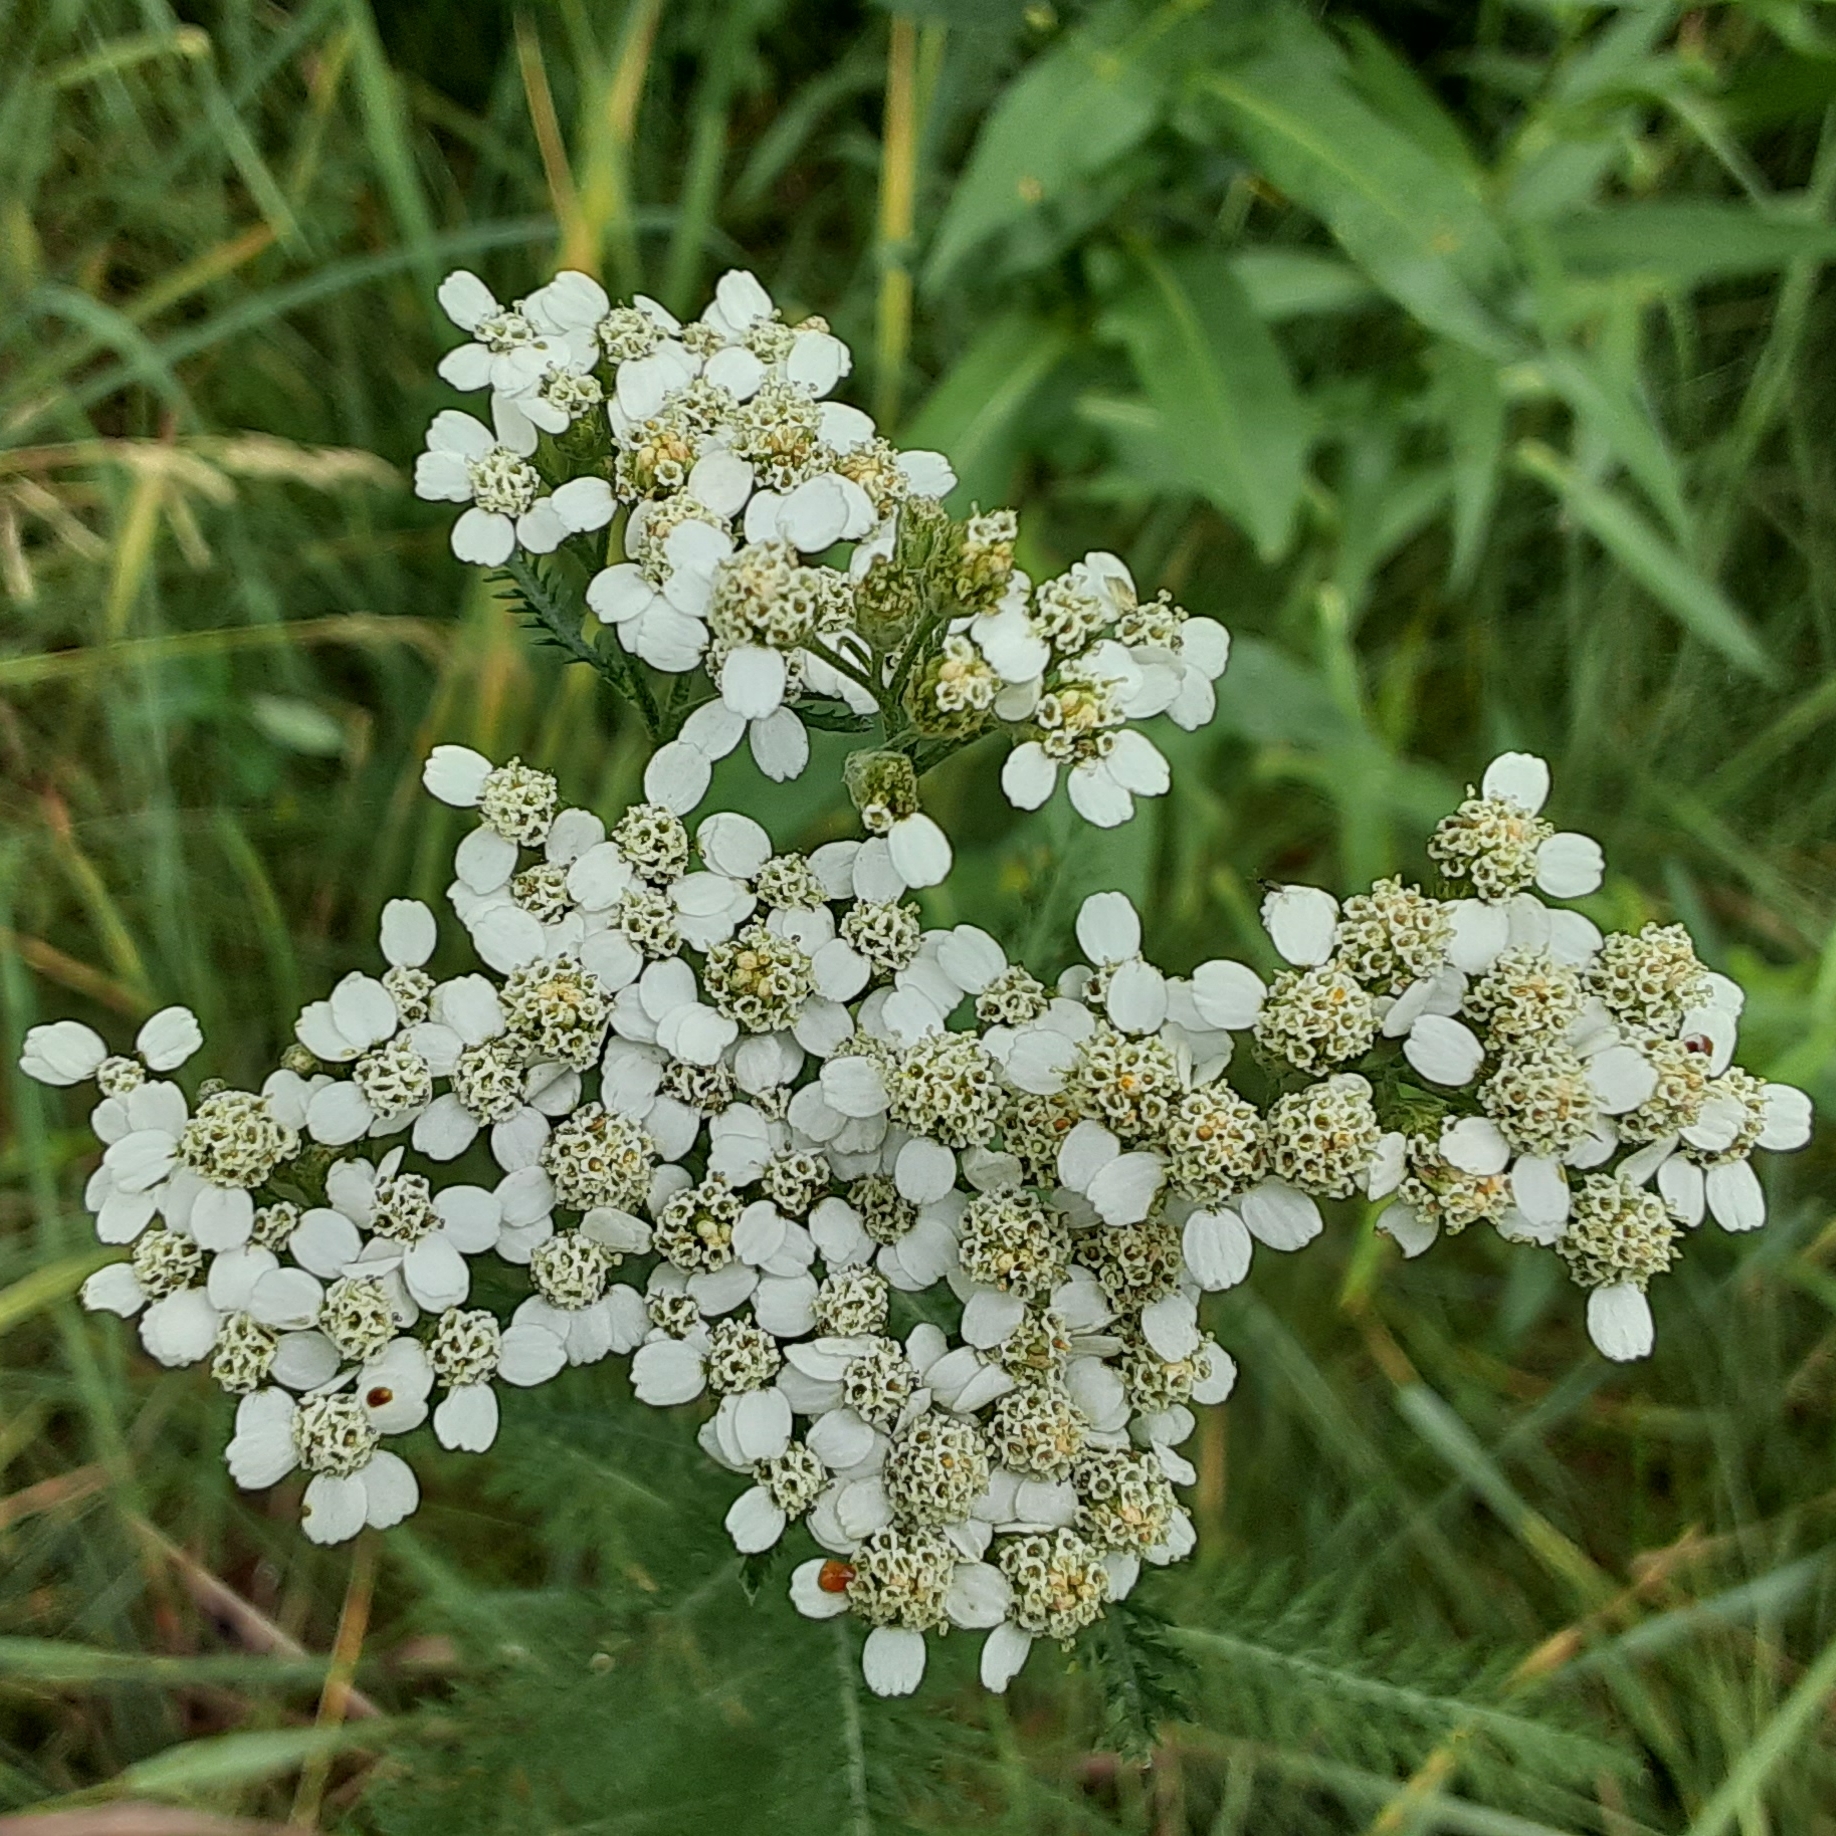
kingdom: Plantae
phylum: Tracheophyta
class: Magnoliopsida
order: Asterales
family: Asteraceae
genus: Achillea
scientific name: Achillea millefolium
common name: Yarrow
